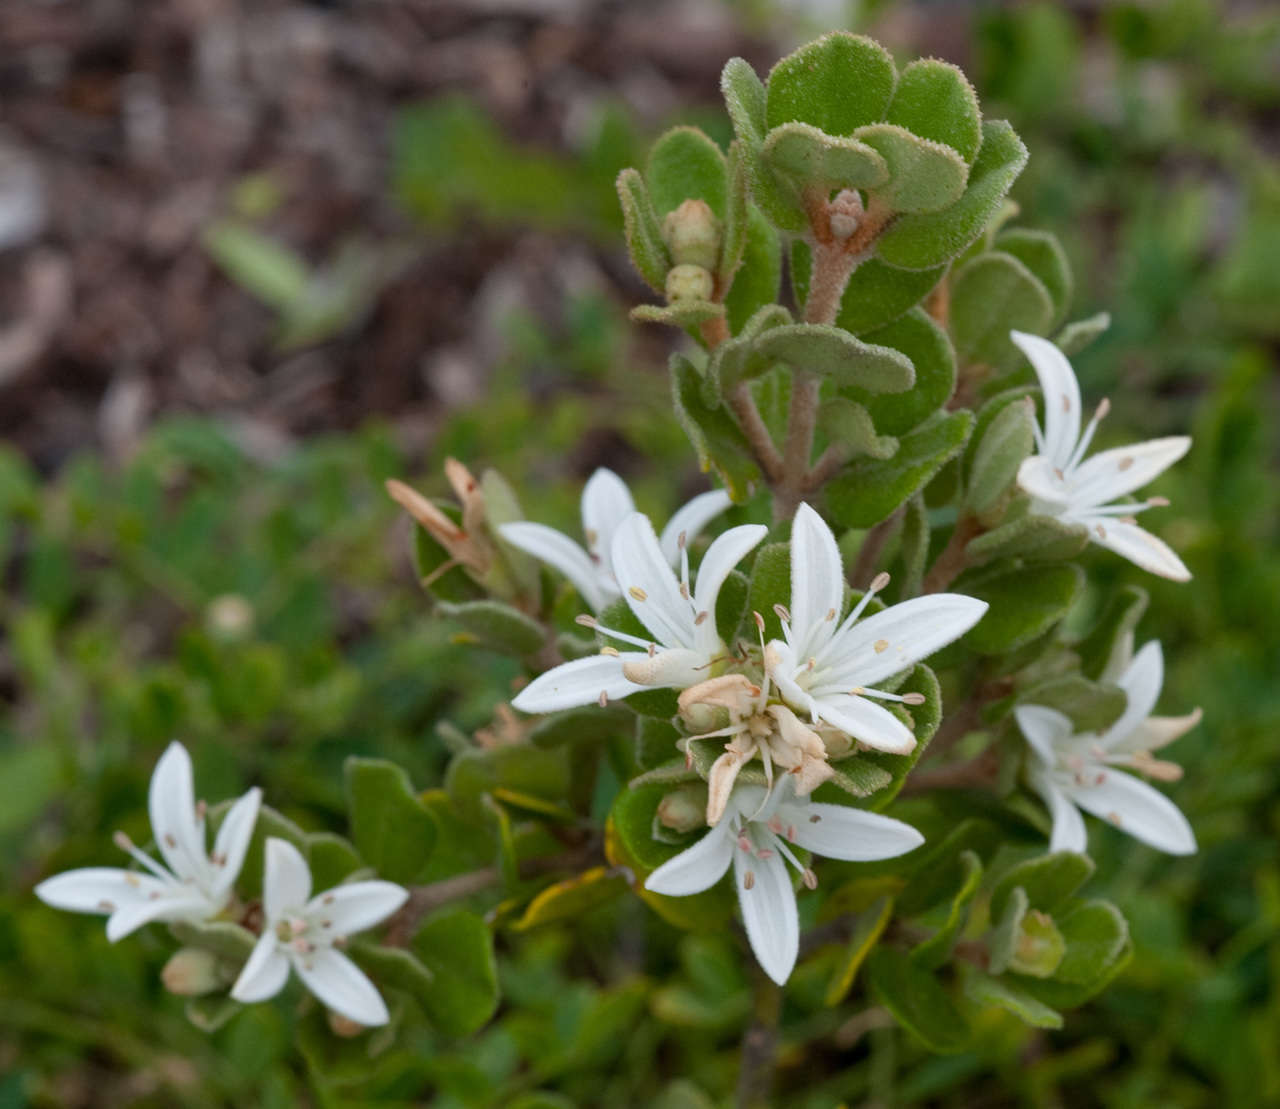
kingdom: Plantae
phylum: Tracheophyta
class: Magnoliopsida
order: Sapindales
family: Rutaceae
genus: Correa
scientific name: Correa alba
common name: White correa
